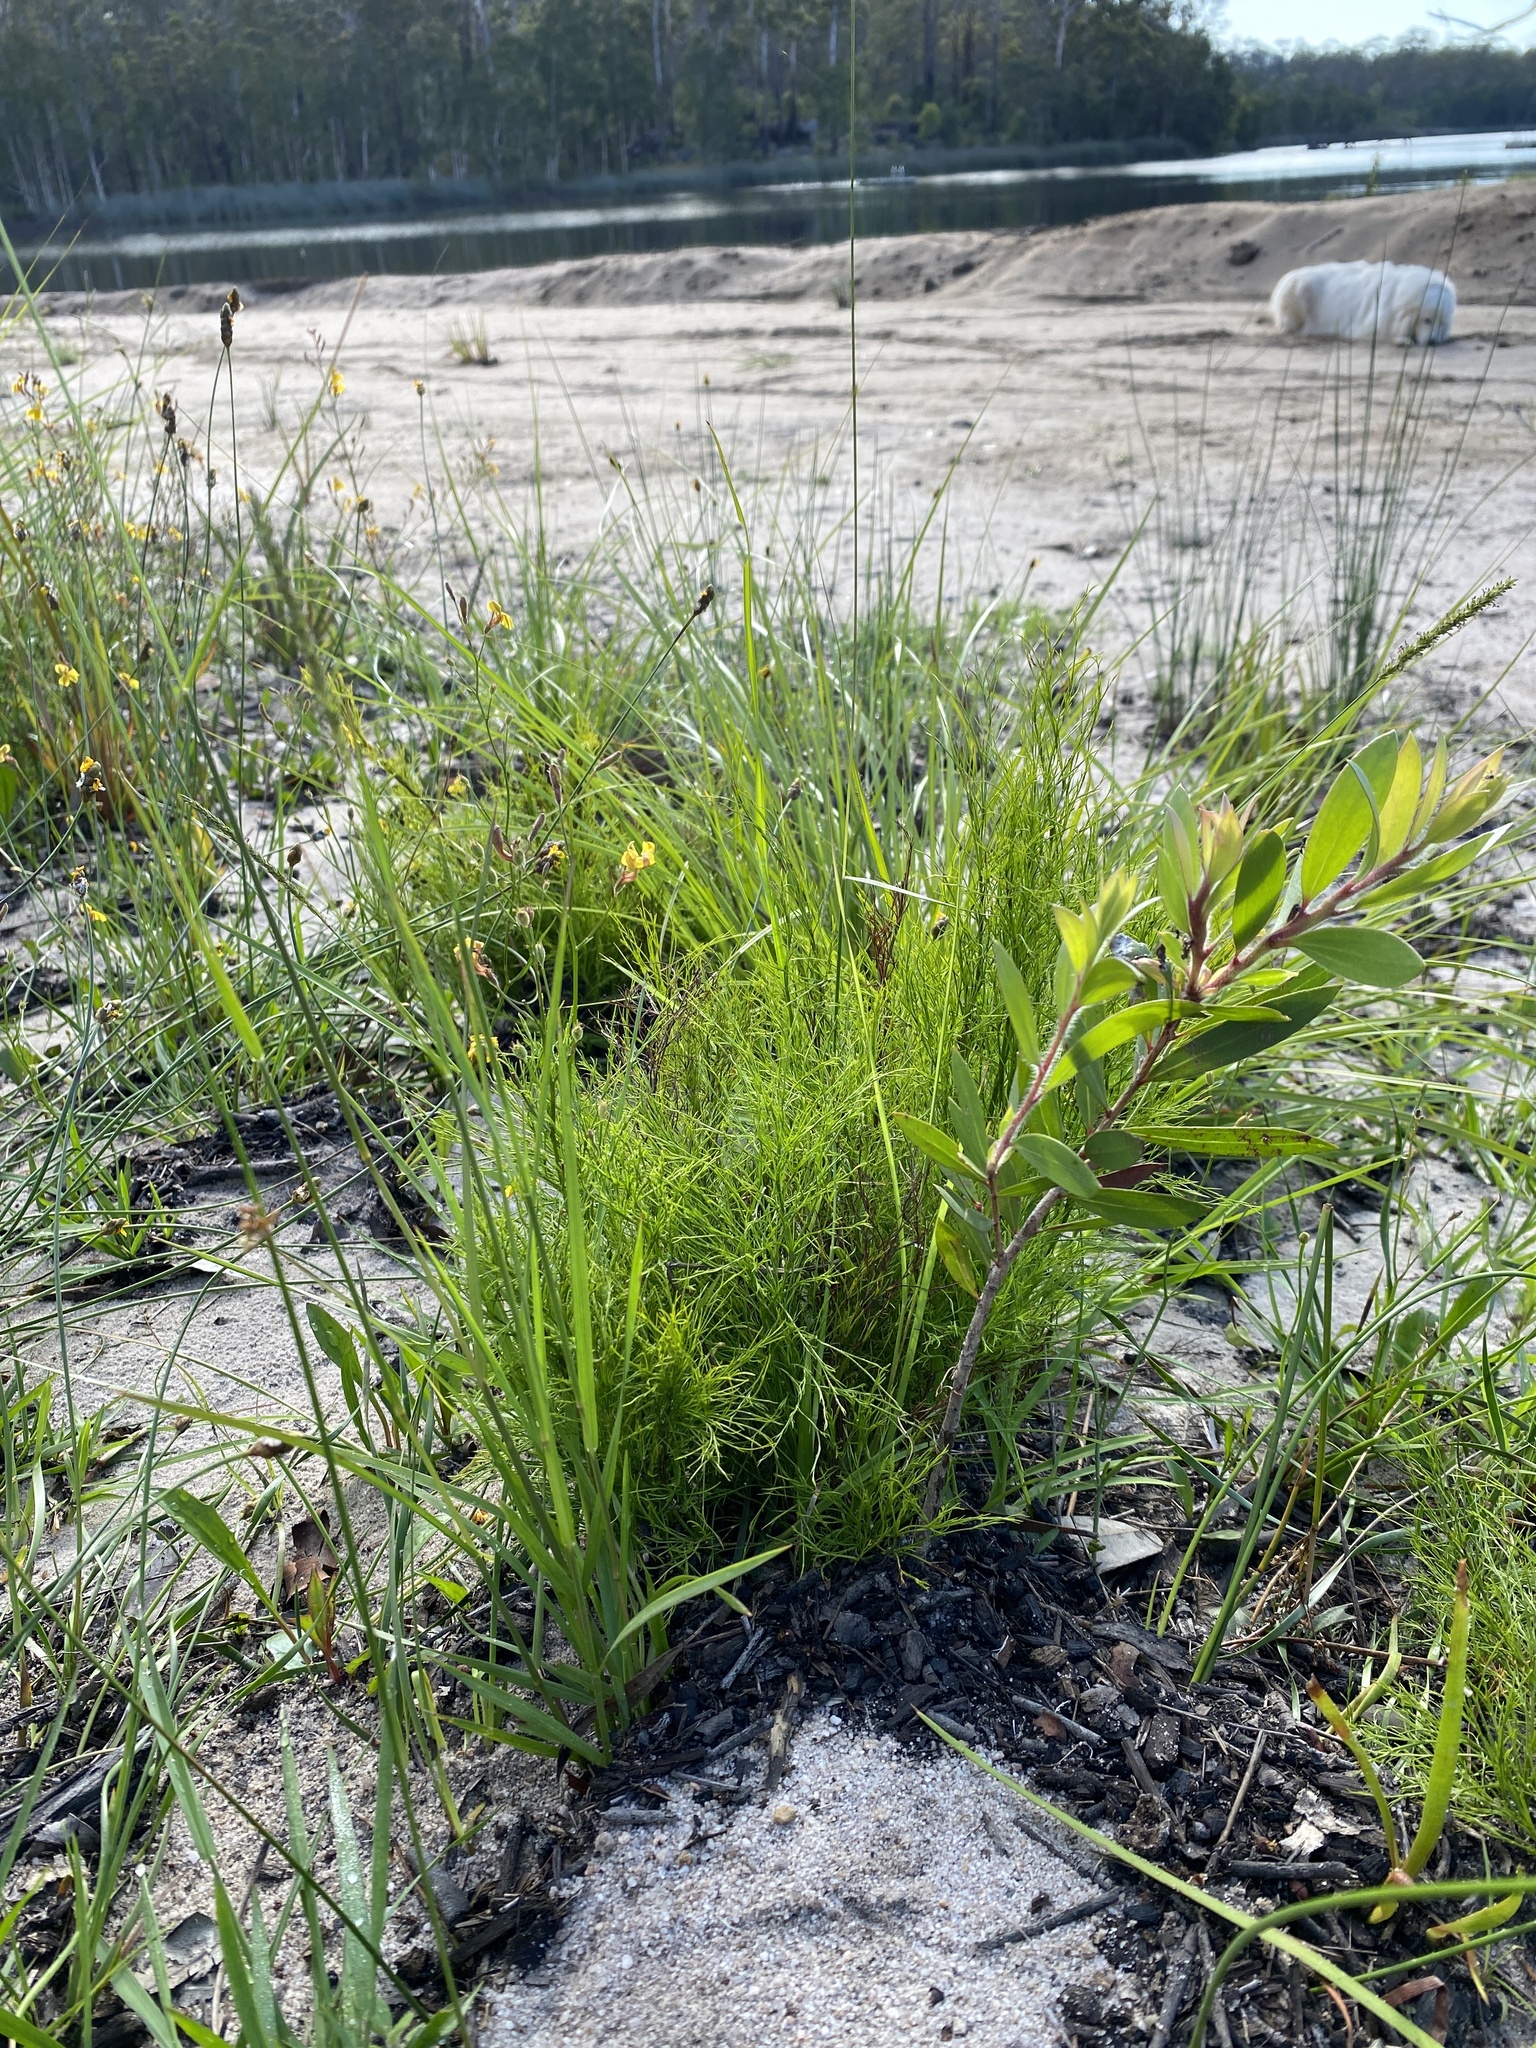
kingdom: Plantae
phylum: Tracheophyta
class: Liliopsida
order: Poales
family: Restionaceae
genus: Baloskion
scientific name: Baloskion tetraphyllum
